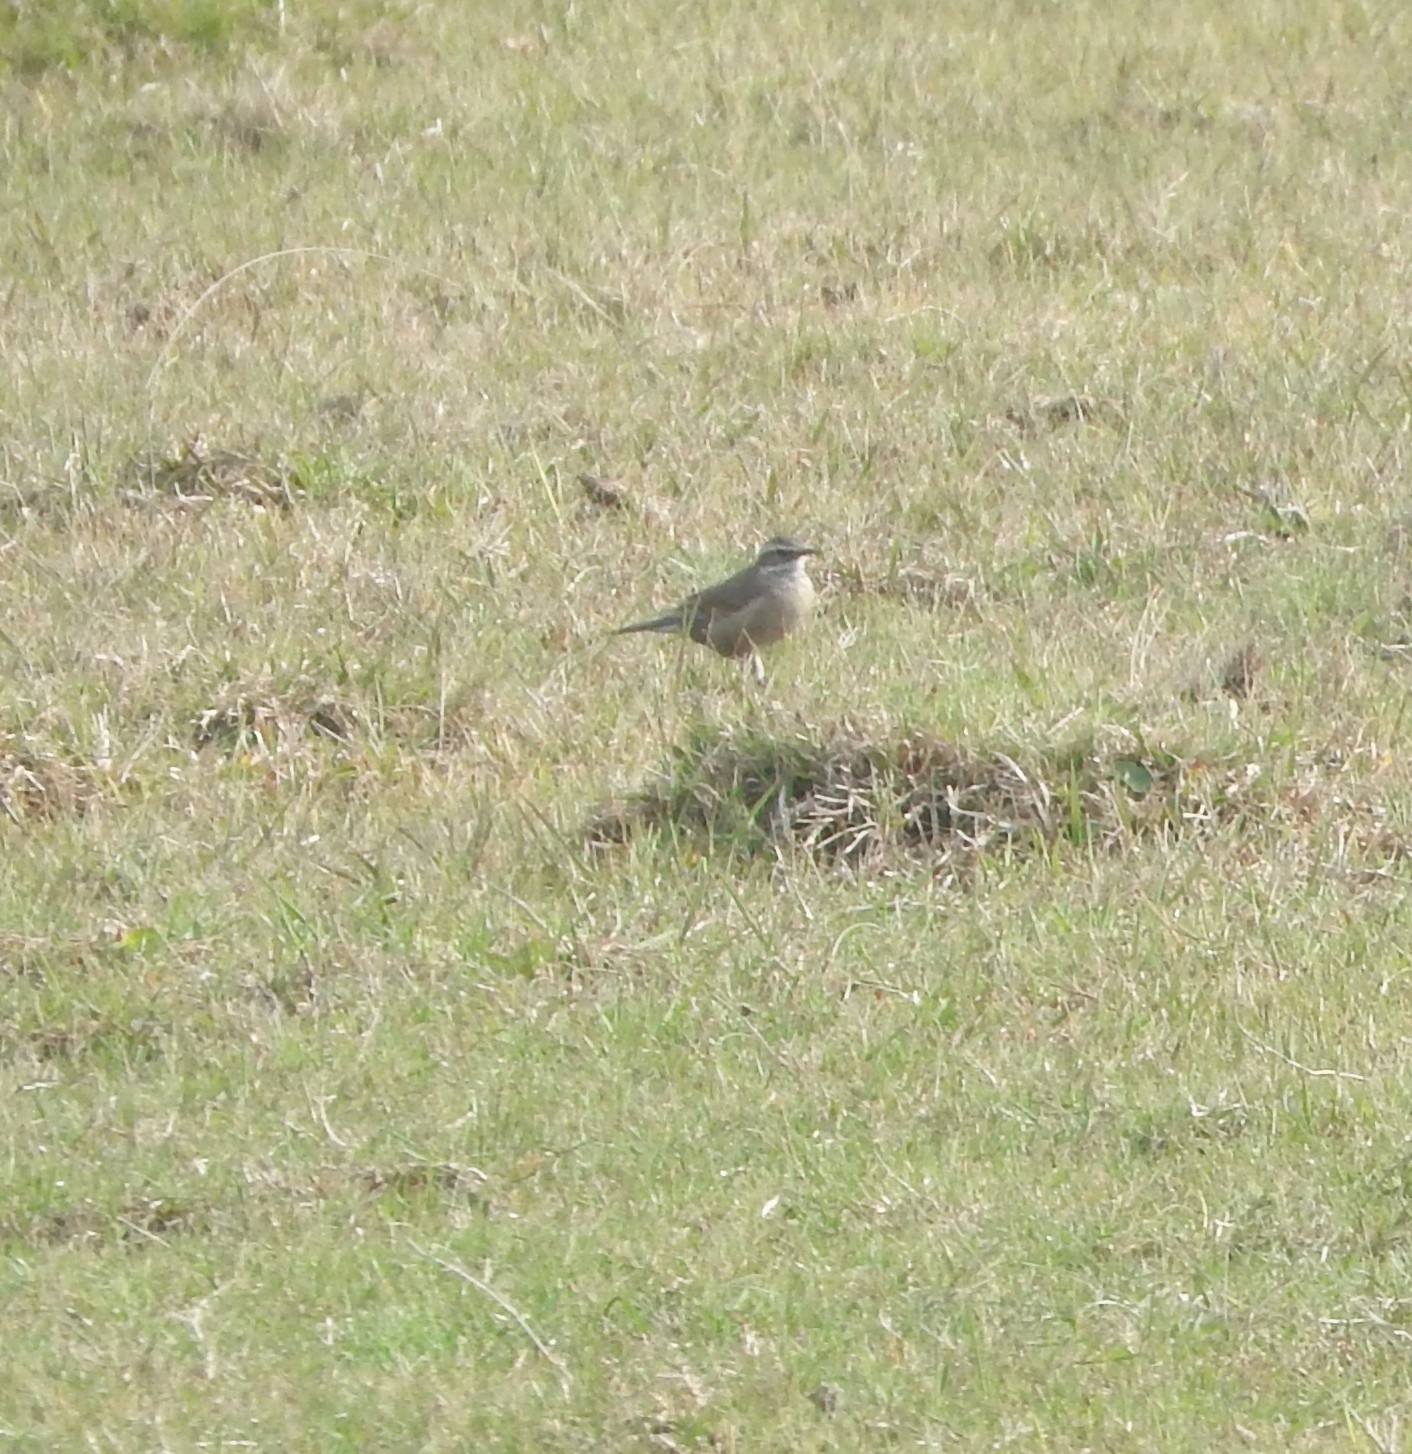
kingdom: Animalia
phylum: Chordata
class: Aves
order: Passeriformes
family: Furnariidae
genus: Cinclodes
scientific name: Cinclodes fuscus
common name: Buff-winged cinclodes
